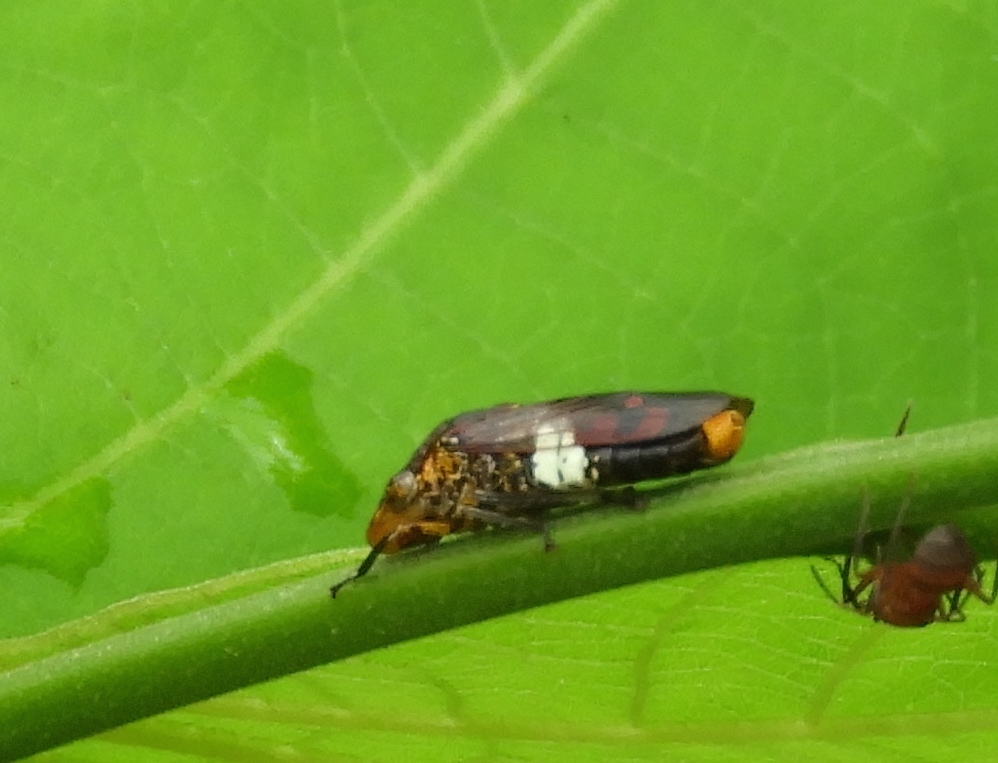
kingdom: Animalia
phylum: Arthropoda
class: Insecta
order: Hemiptera
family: Cicadellidae
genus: Homalodisca
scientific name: Homalodisca ichthyocephala
